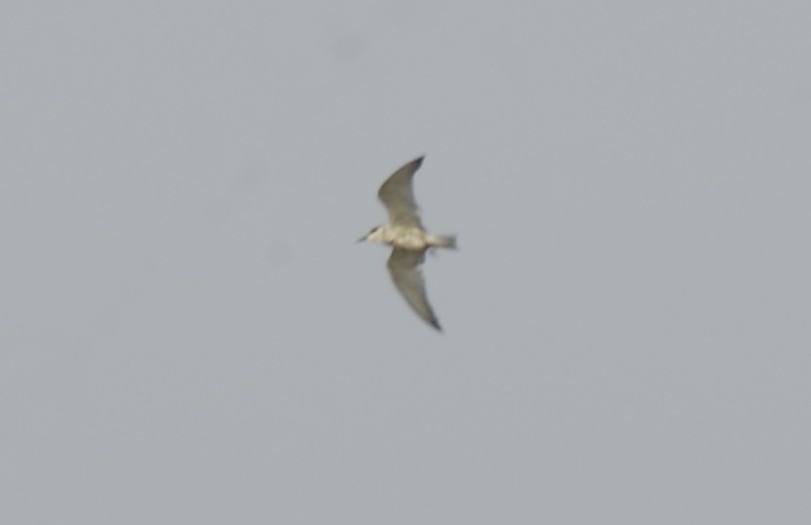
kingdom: Animalia
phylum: Chordata
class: Aves
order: Charadriiformes
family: Laridae
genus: Chlidonias
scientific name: Chlidonias hybrida
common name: Whiskered tern
